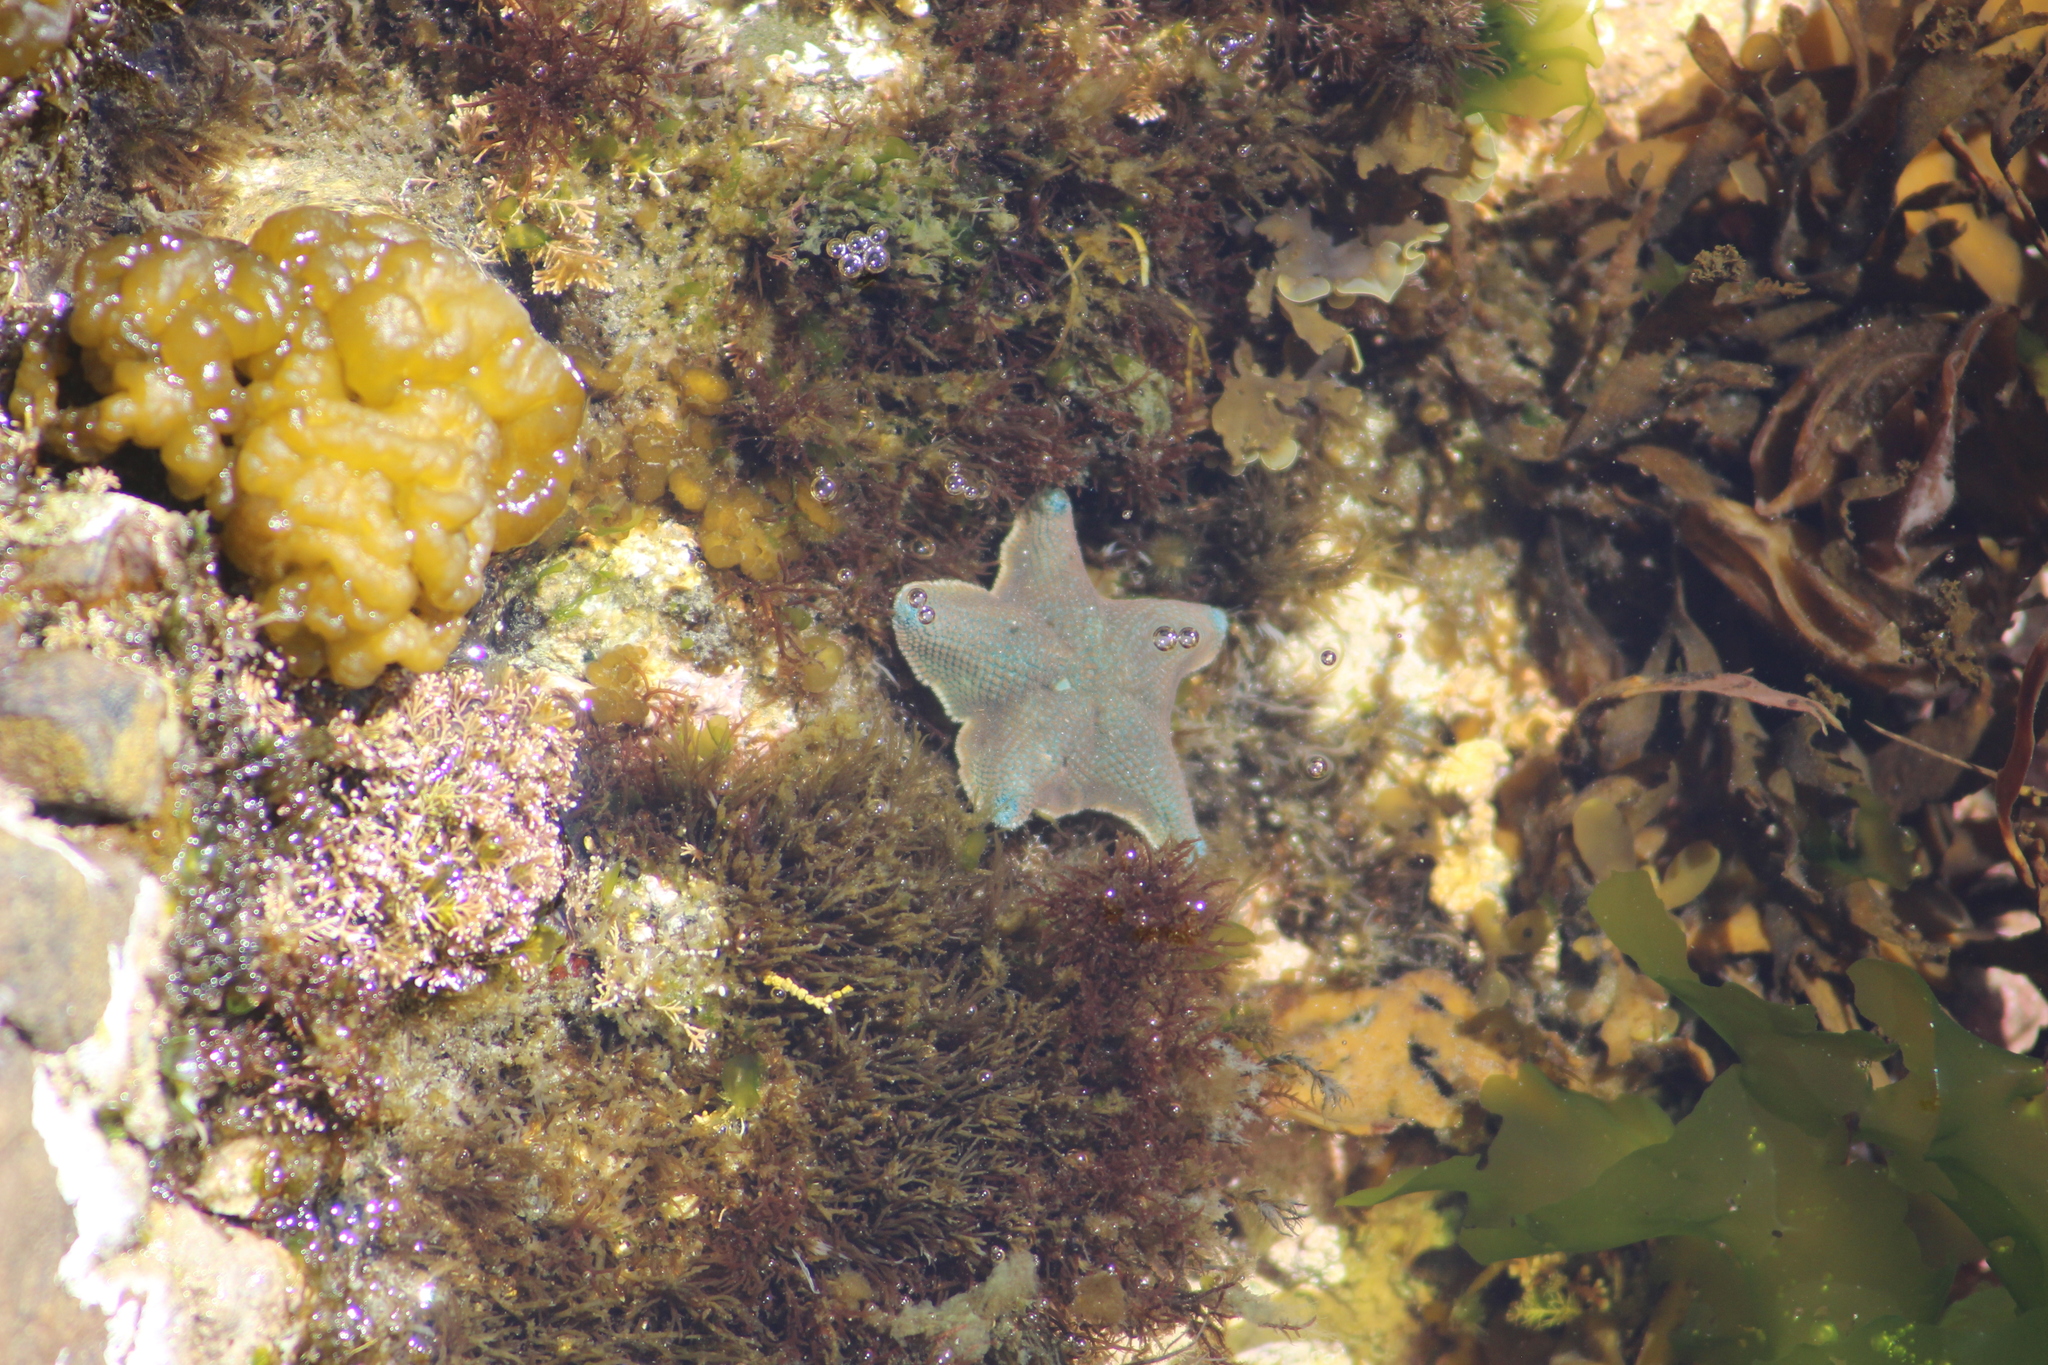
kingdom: Animalia
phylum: Echinodermata
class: Asteroidea
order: Valvatida
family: Asterinidae
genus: Patiriella
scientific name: Patiriella regularis
